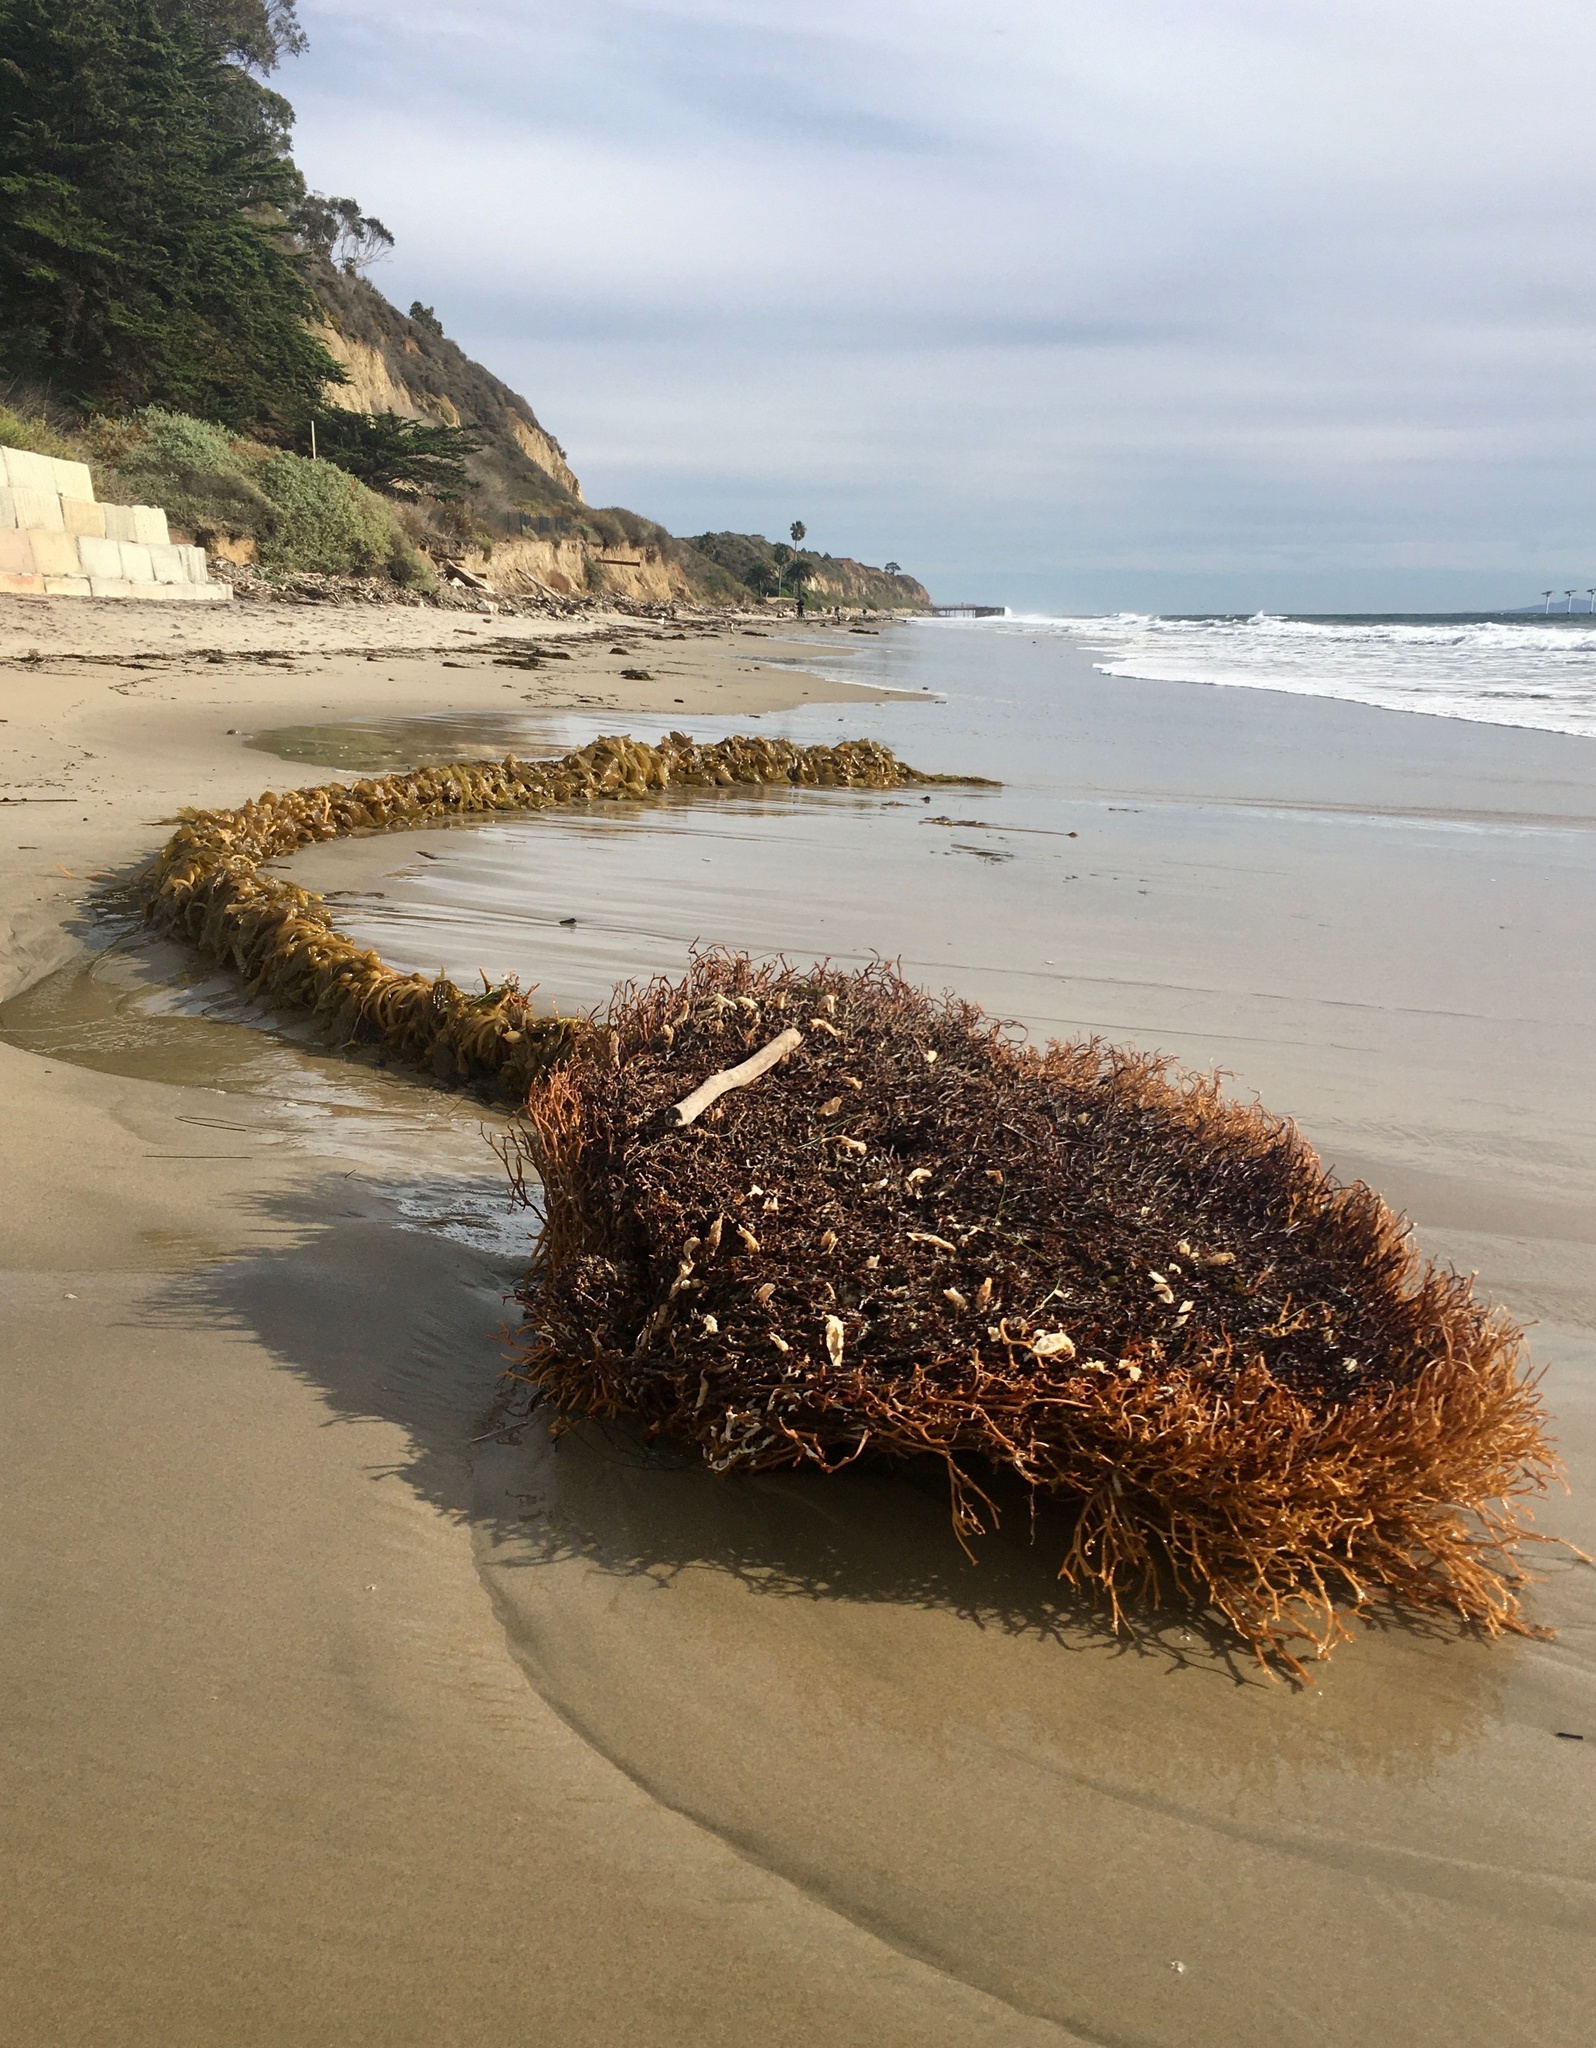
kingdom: Chromista
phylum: Ochrophyta
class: Phaeophyceae
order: Laminariales
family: Laminariaceae
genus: Macrocystis
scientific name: Macrocystis pyrifera
